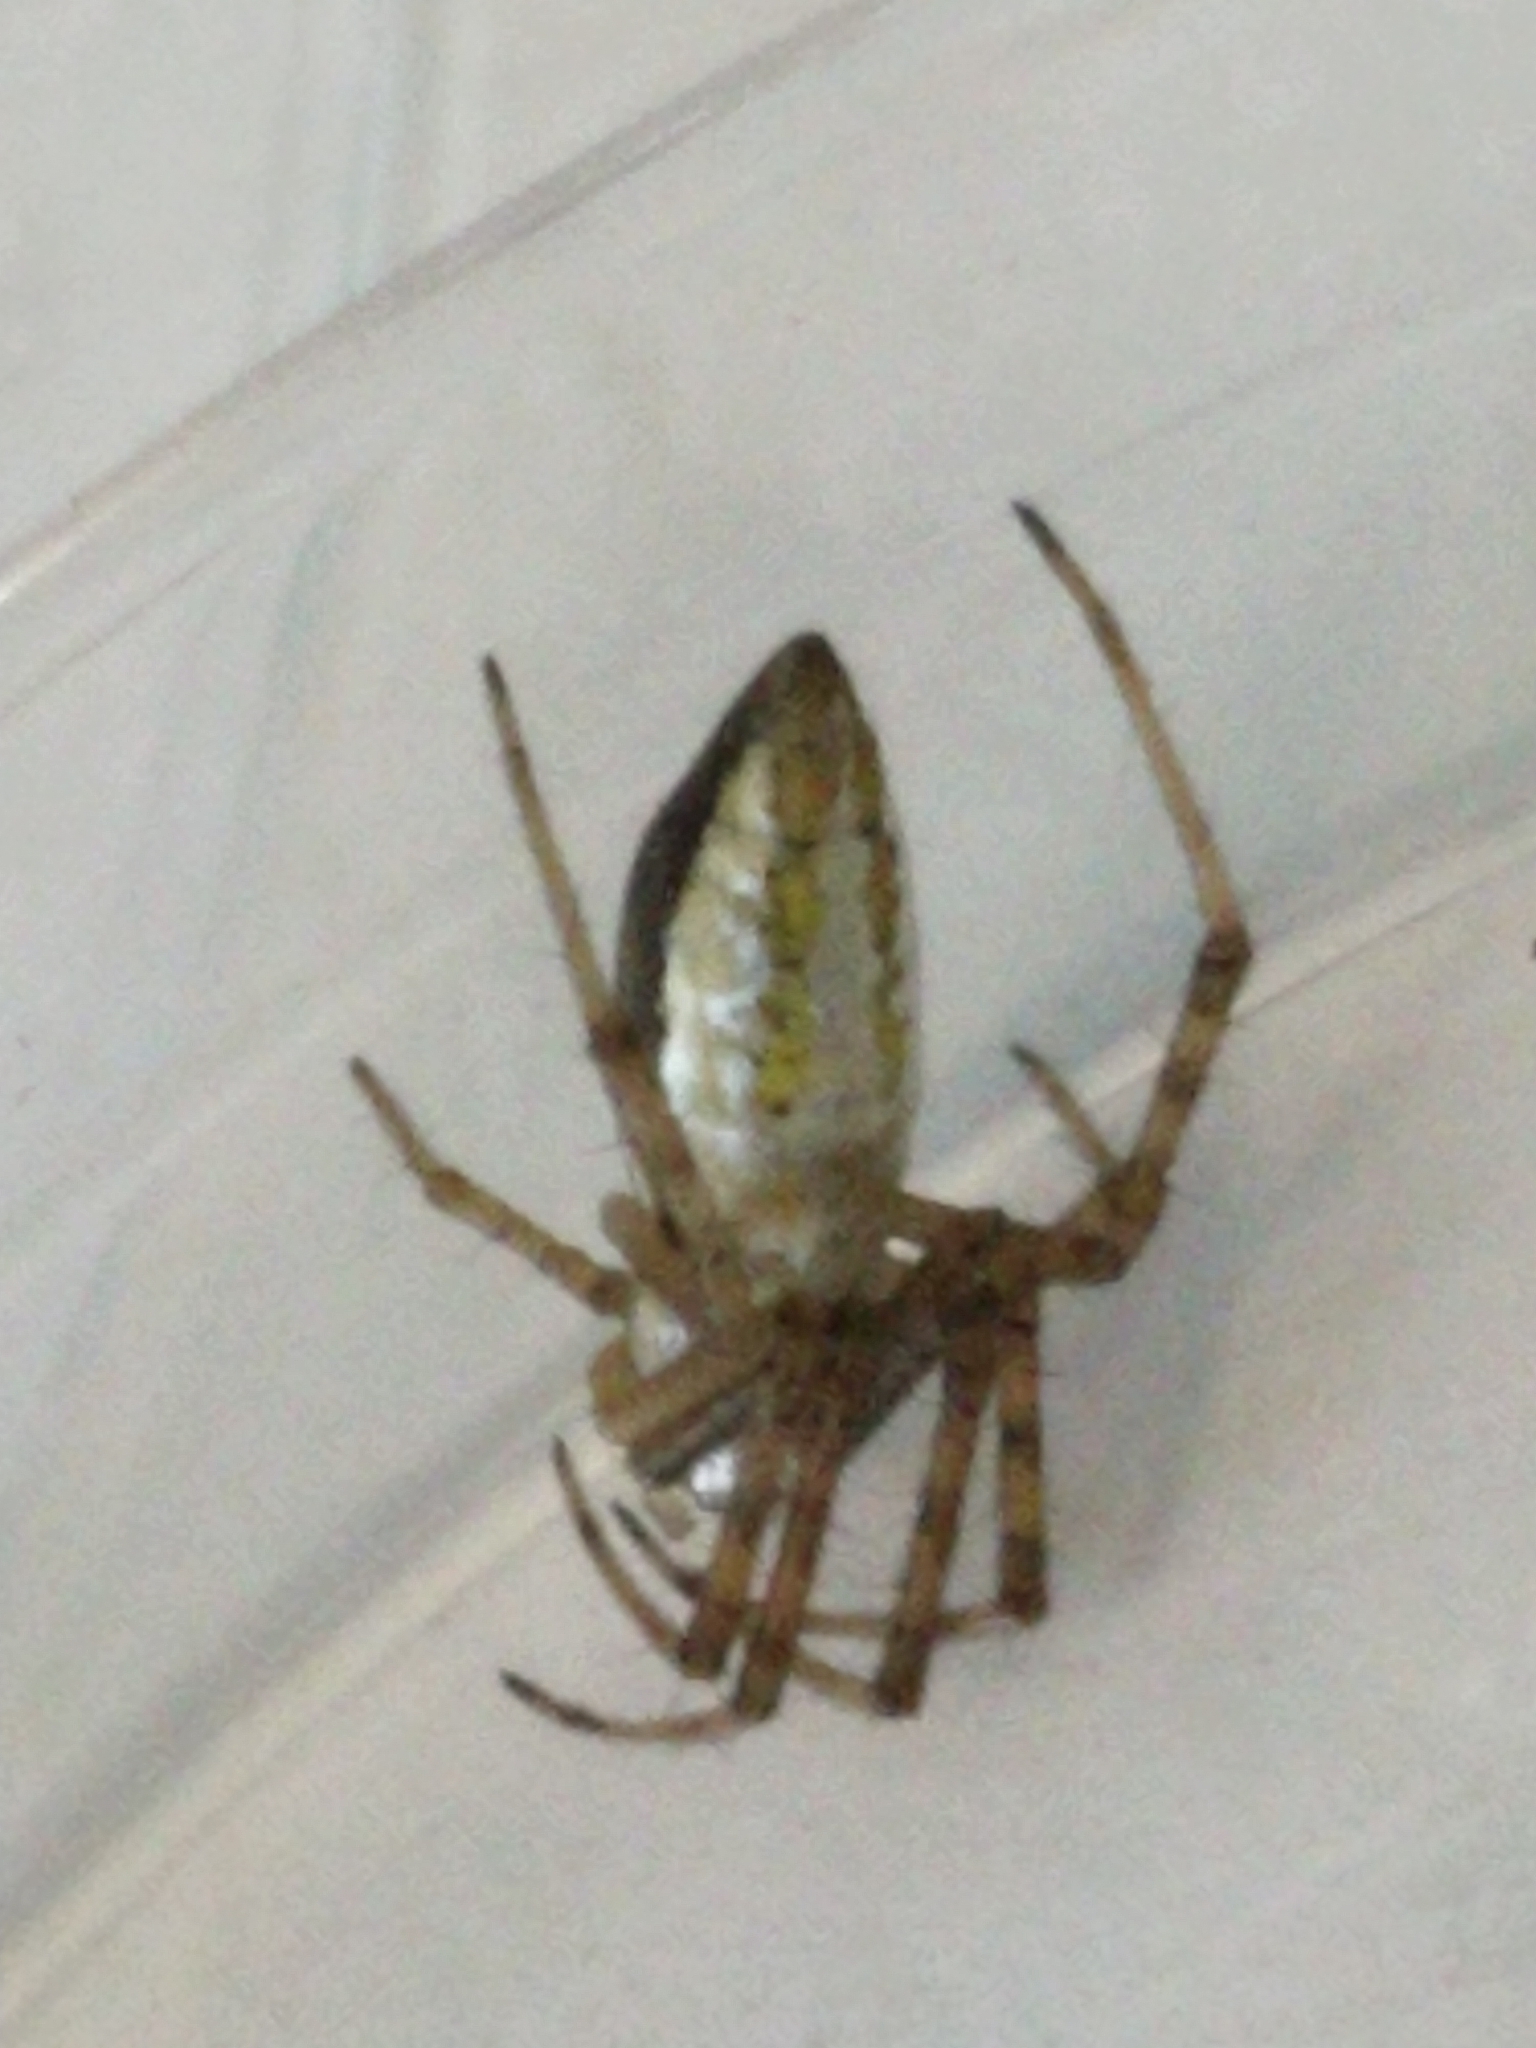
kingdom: Animalia
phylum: Arthropoda
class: Arachnida
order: Araneae
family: Araneidae
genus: Argiope
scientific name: Argiope trifasciata
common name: Banded garden spider
